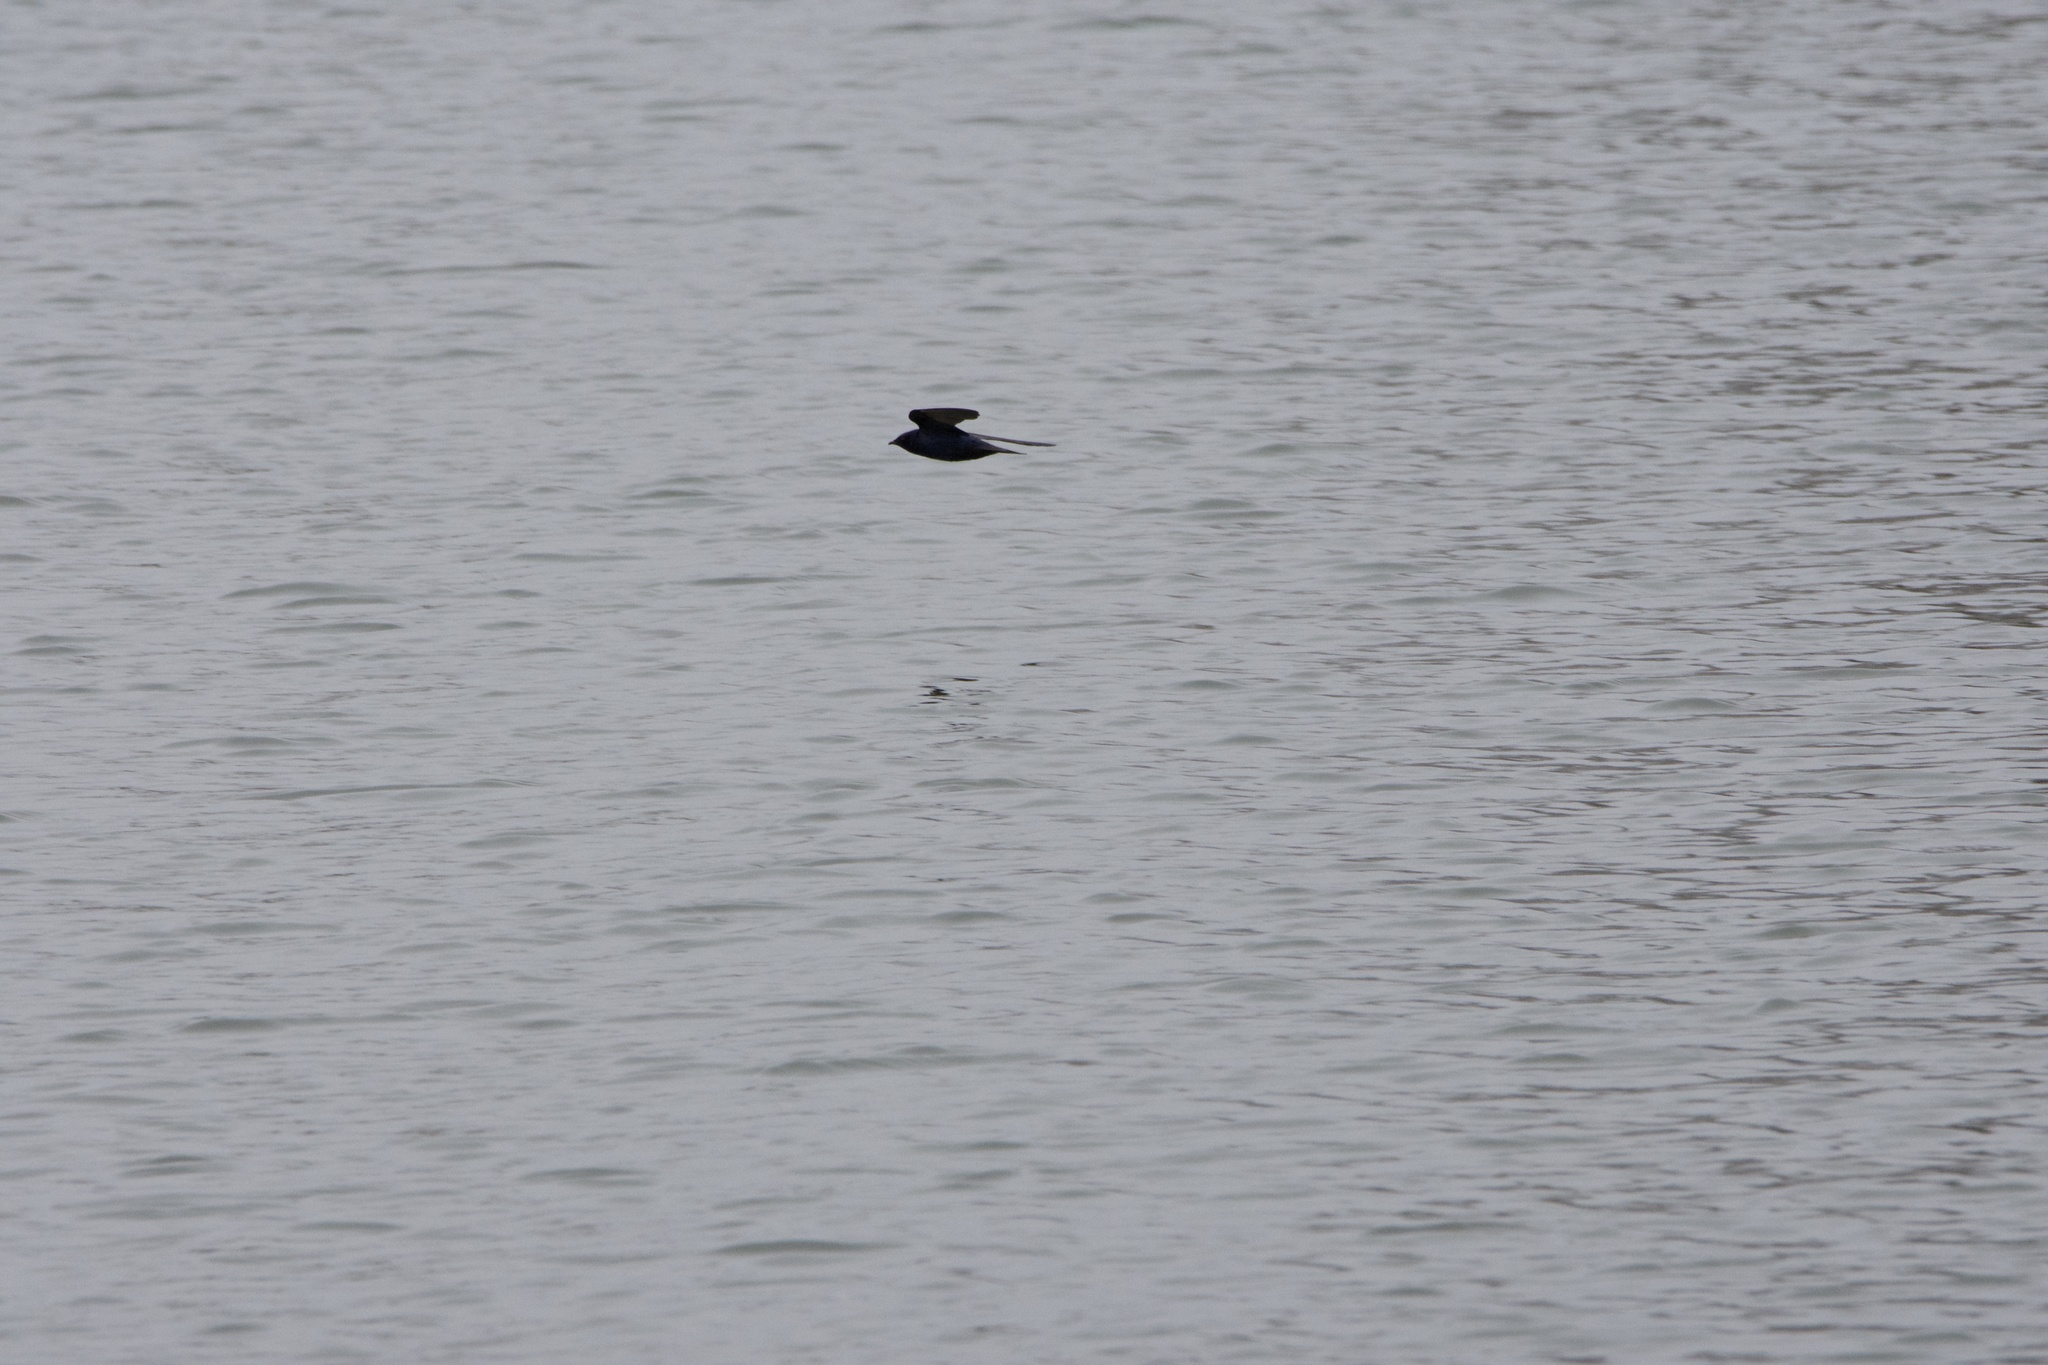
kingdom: Animalia
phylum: Chordata
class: Aves
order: Passeriformes
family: Hirundinidae
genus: Progne
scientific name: Progne subis
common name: Purple martin
